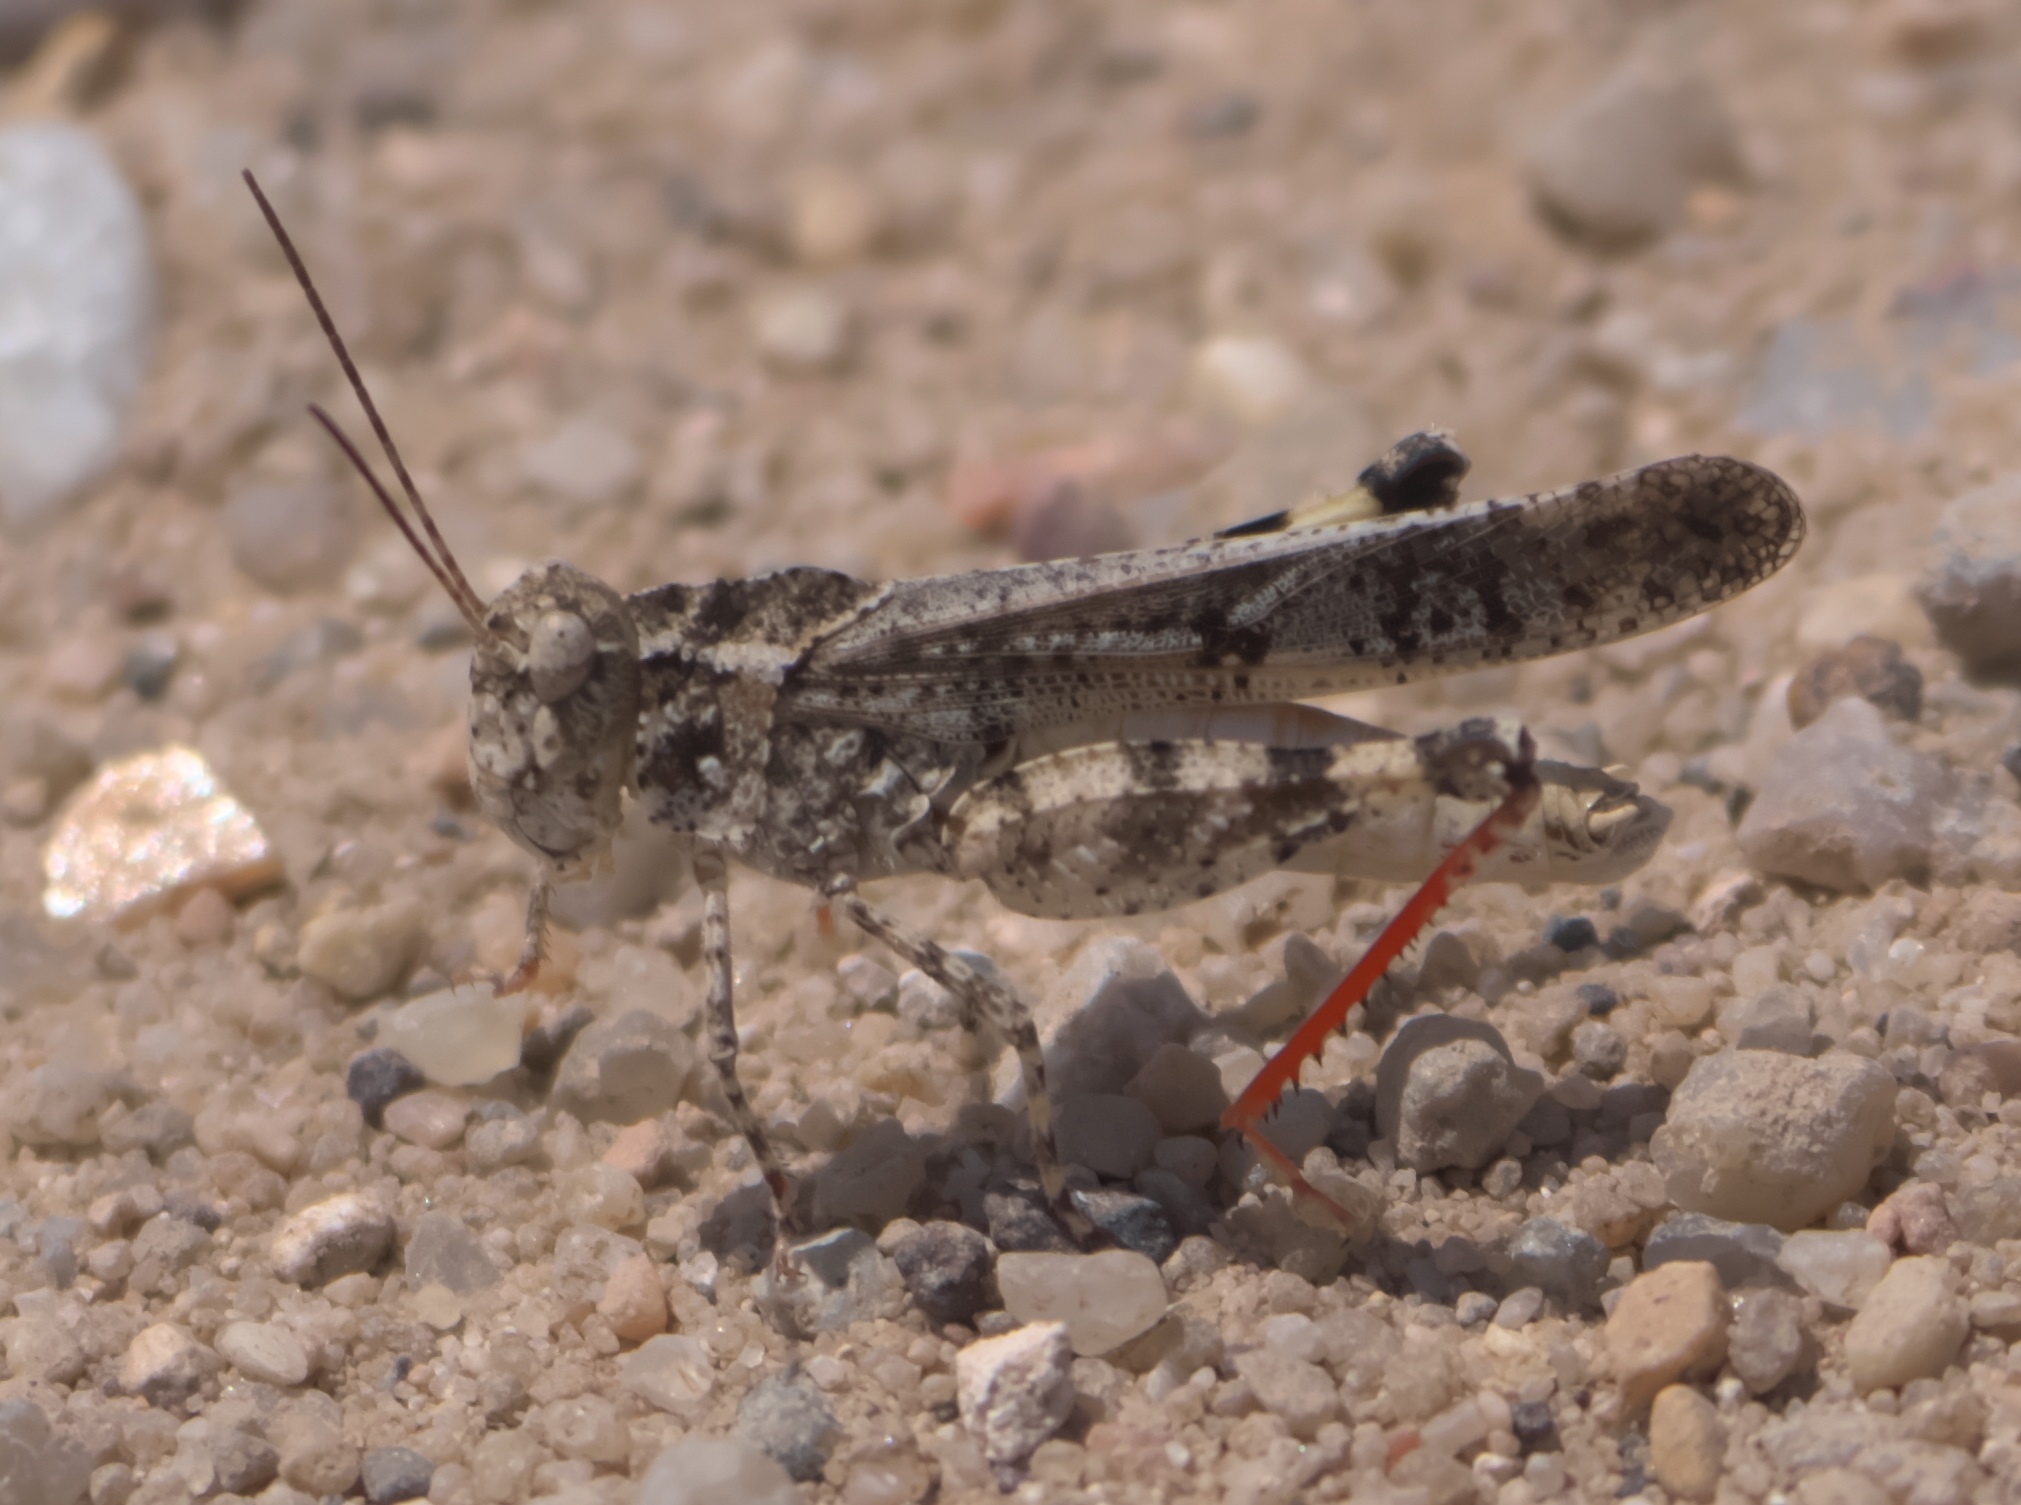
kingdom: Animalia
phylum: Arthropoda
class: Insecta
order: Orthoptera
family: Acrididae
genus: Spharagemon
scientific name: Spharagemon collare
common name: Mottled sand grasshopper
